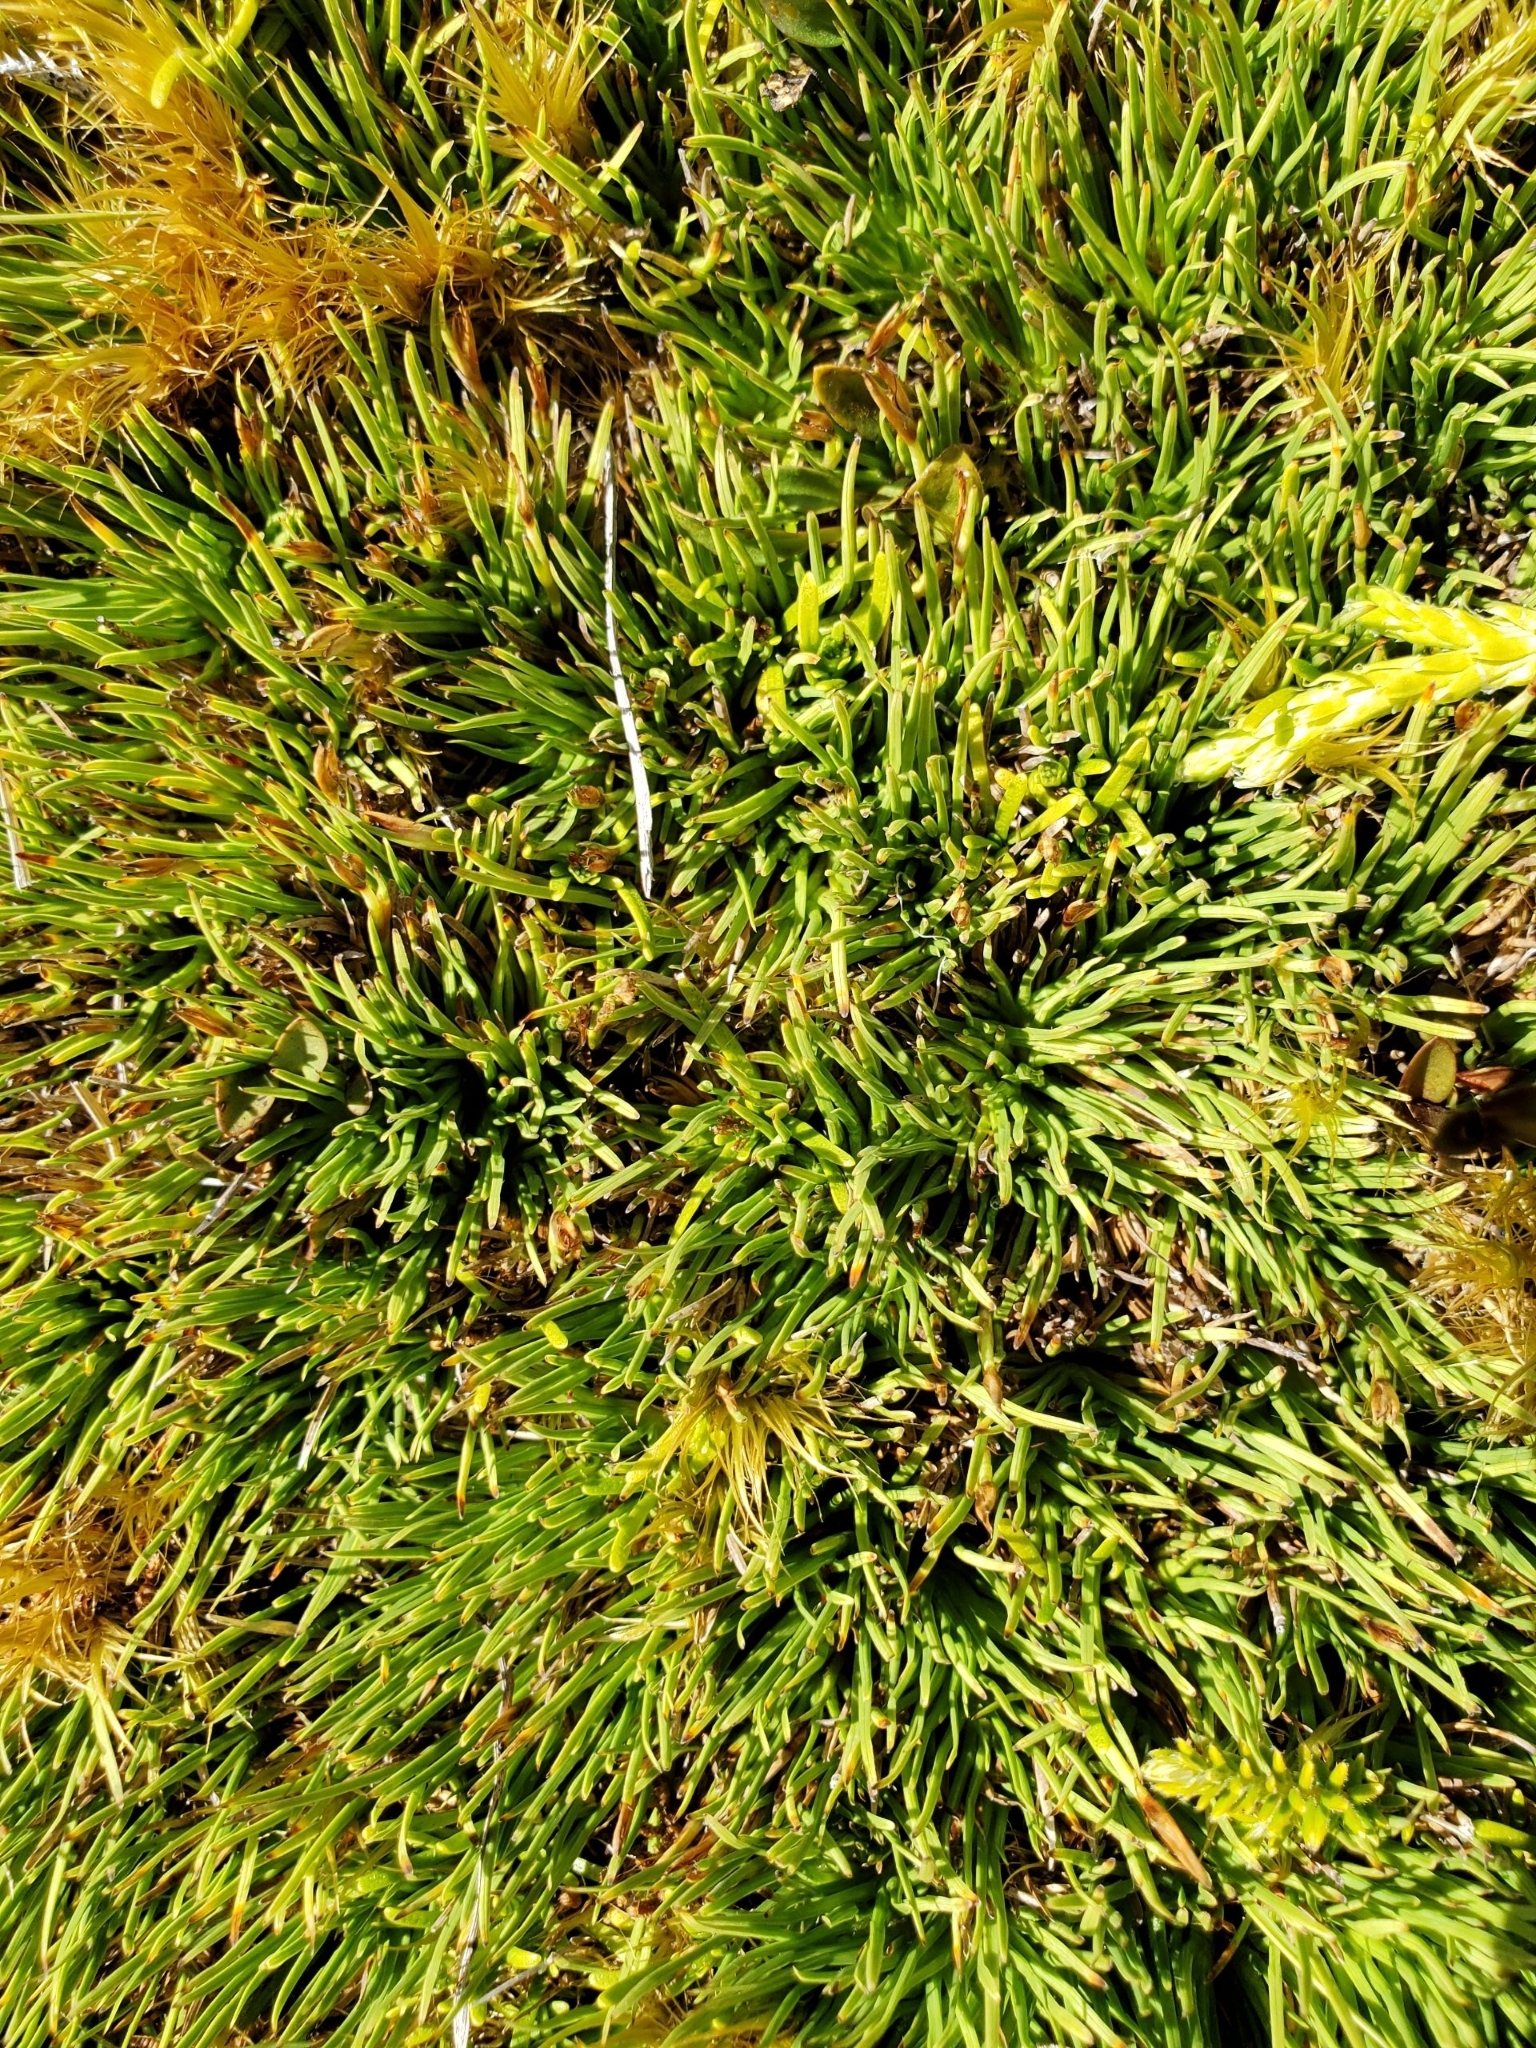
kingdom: Plantae
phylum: Tracheophyta
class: Liliopsida
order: Poales
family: Cyperaceae
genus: Oreobolus
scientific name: Oreobolus pectinatus
